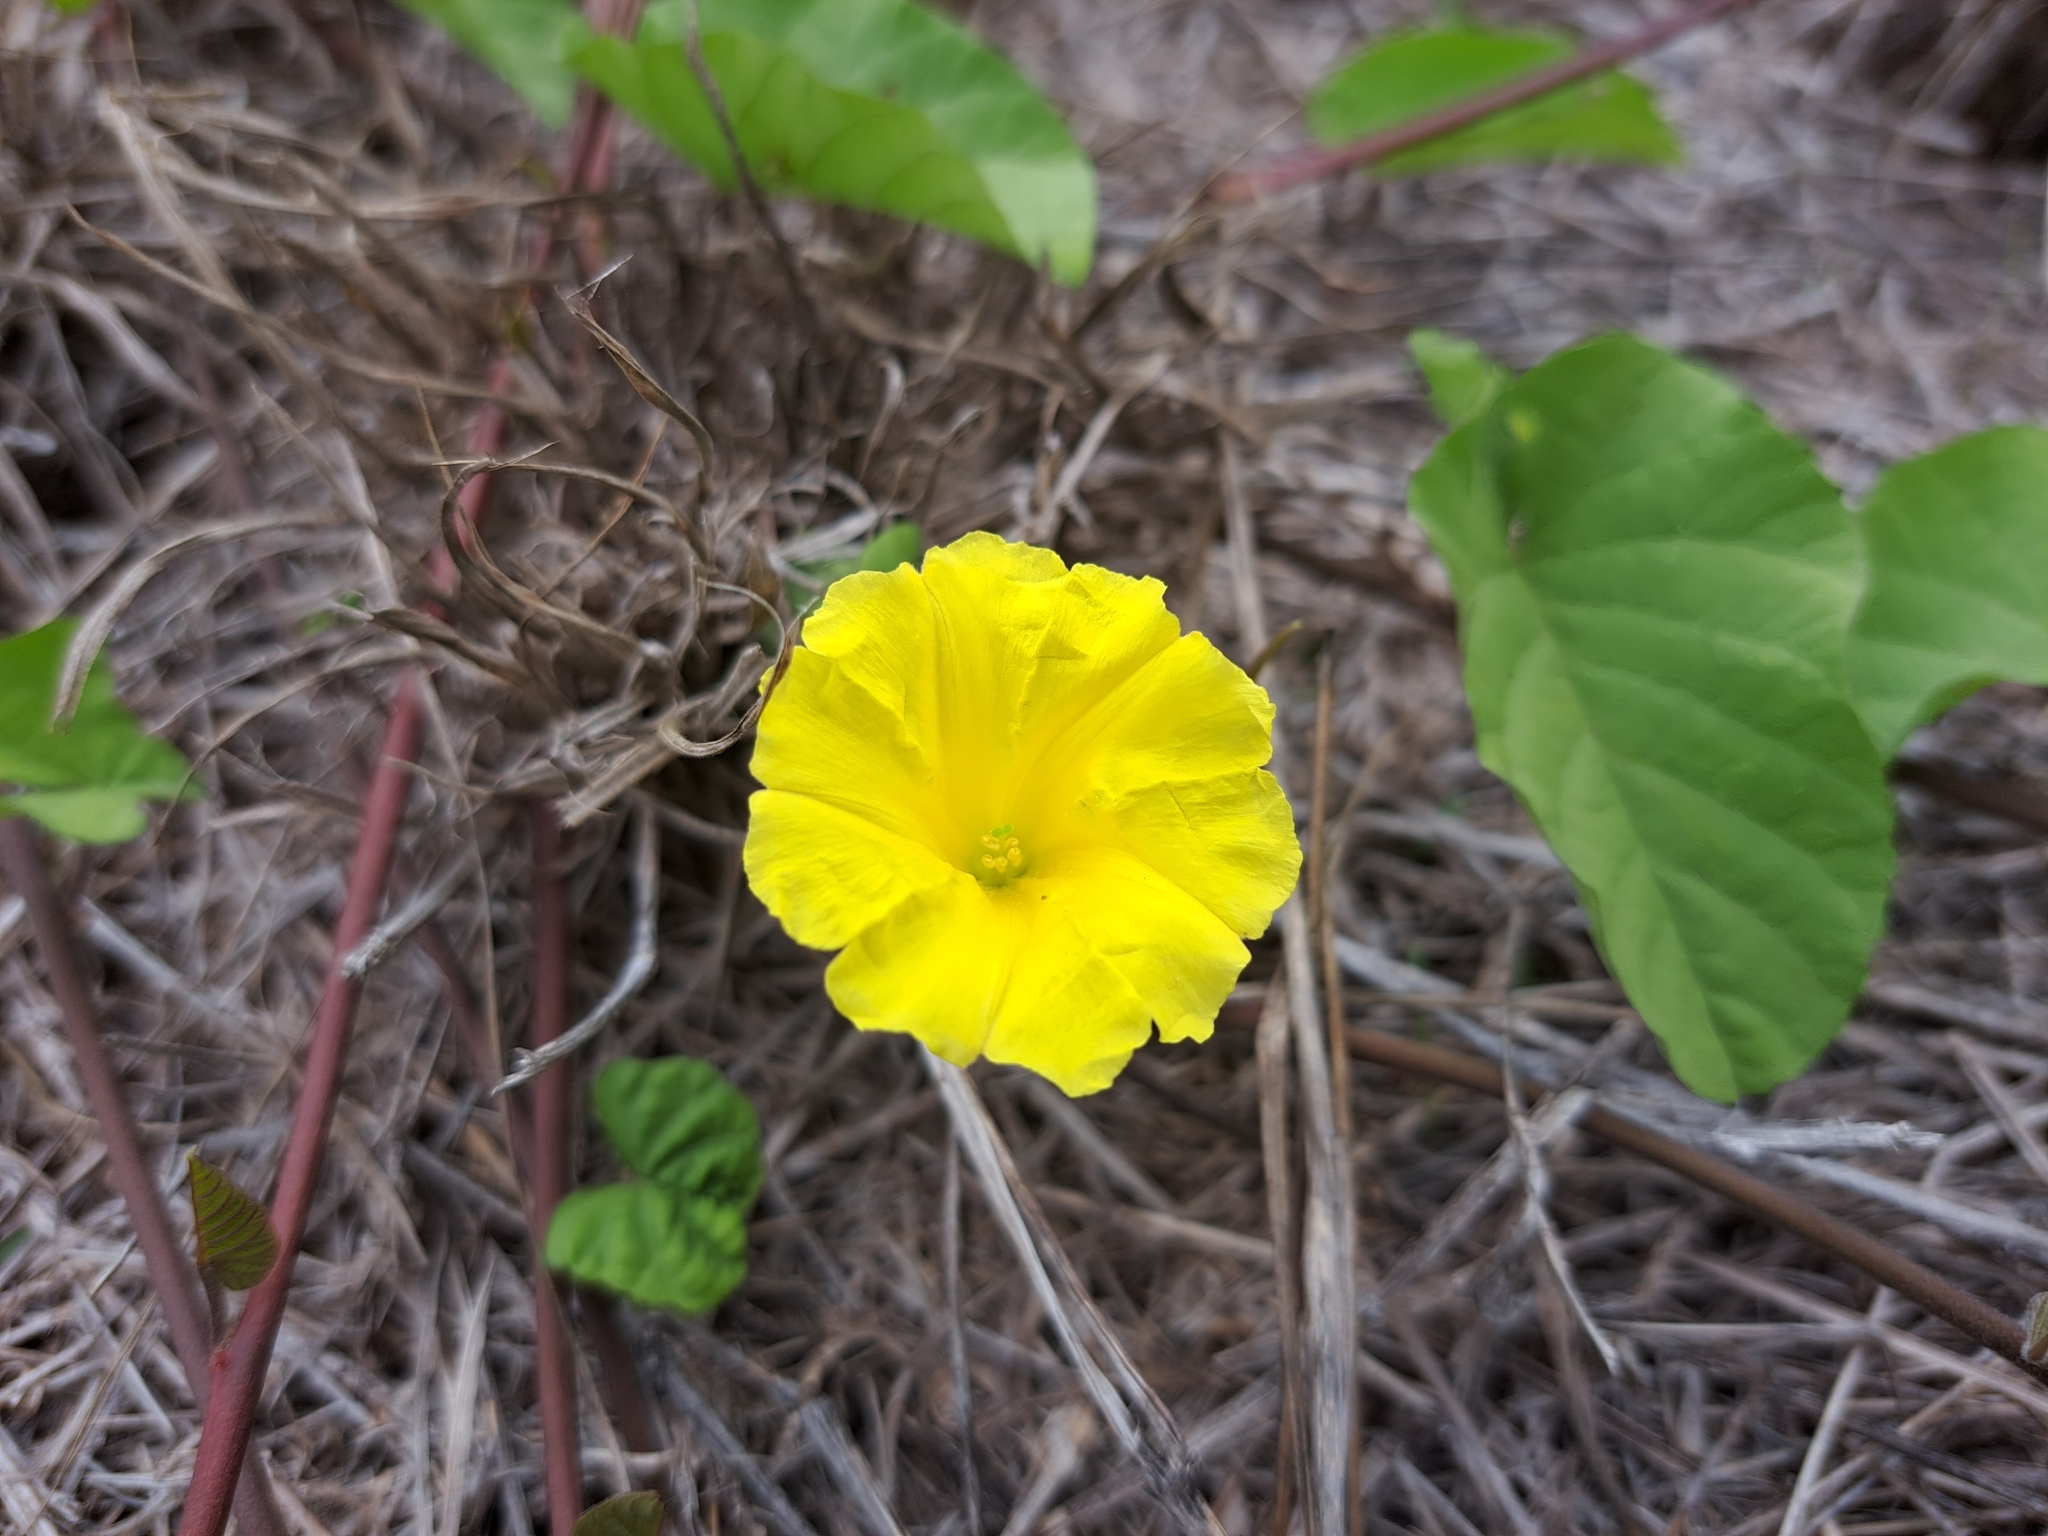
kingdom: Plantae
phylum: Tracheophyta
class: Magnoliopsida
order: Solanales
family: Convolvulaceae
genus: Camonea
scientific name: Camonea umbellata
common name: Hogvine
